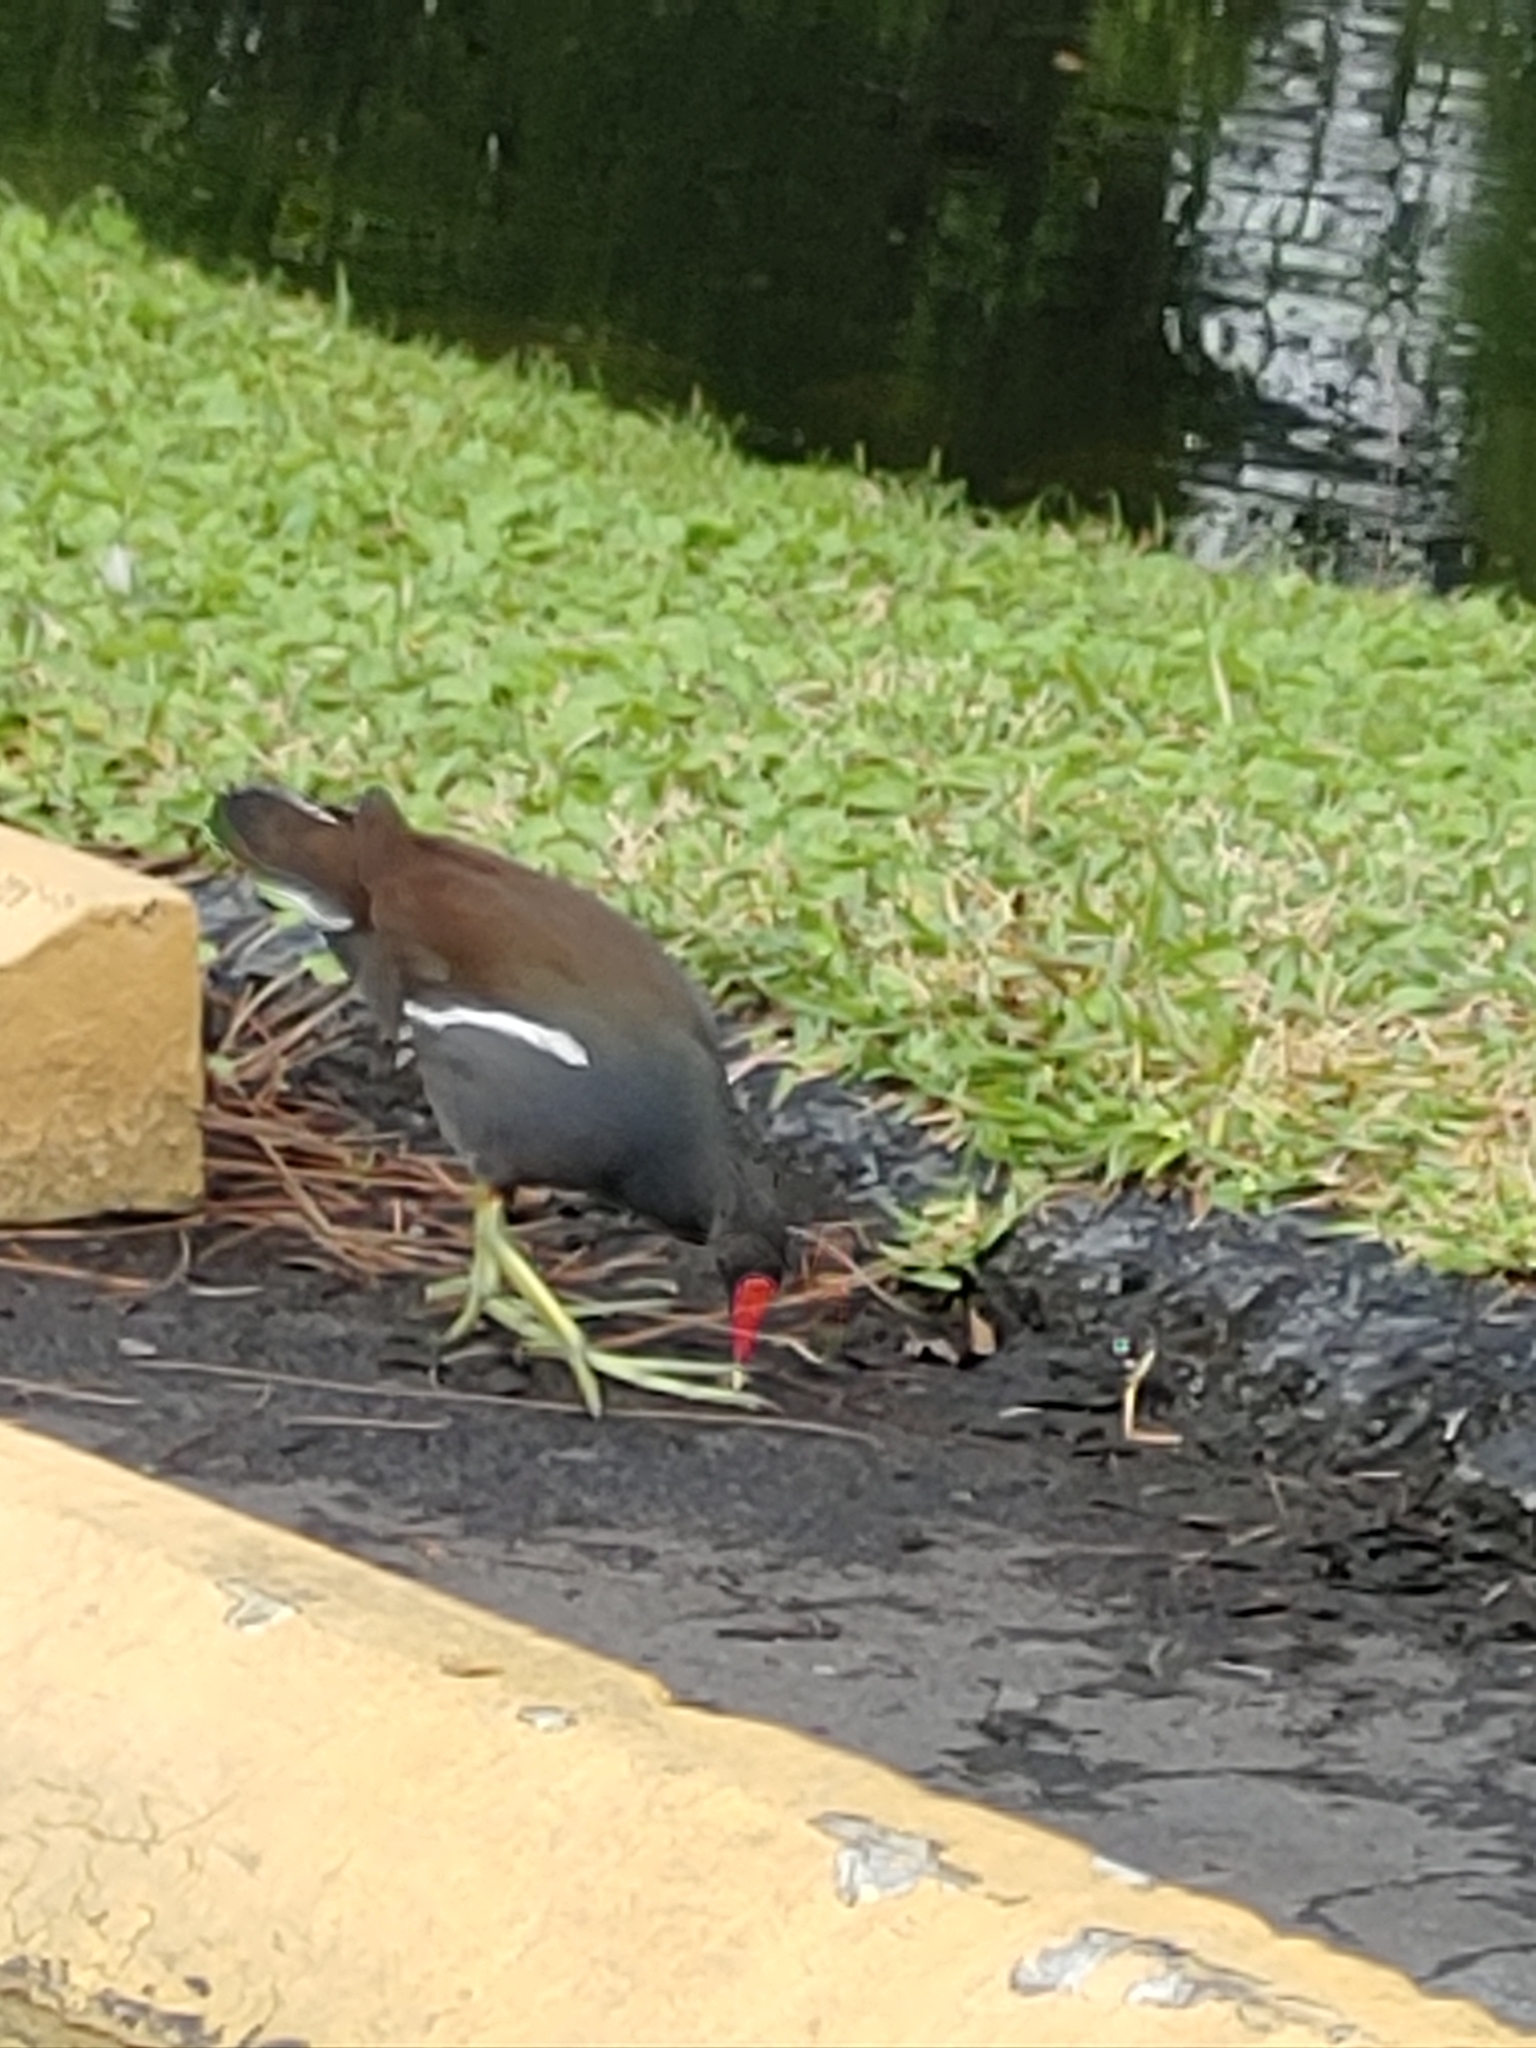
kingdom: Animalia
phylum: Chordata
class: Aves
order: Gruiformes
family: Rallidae
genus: Gallinula
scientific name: Gallinula chloropus
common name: Common moorhen
